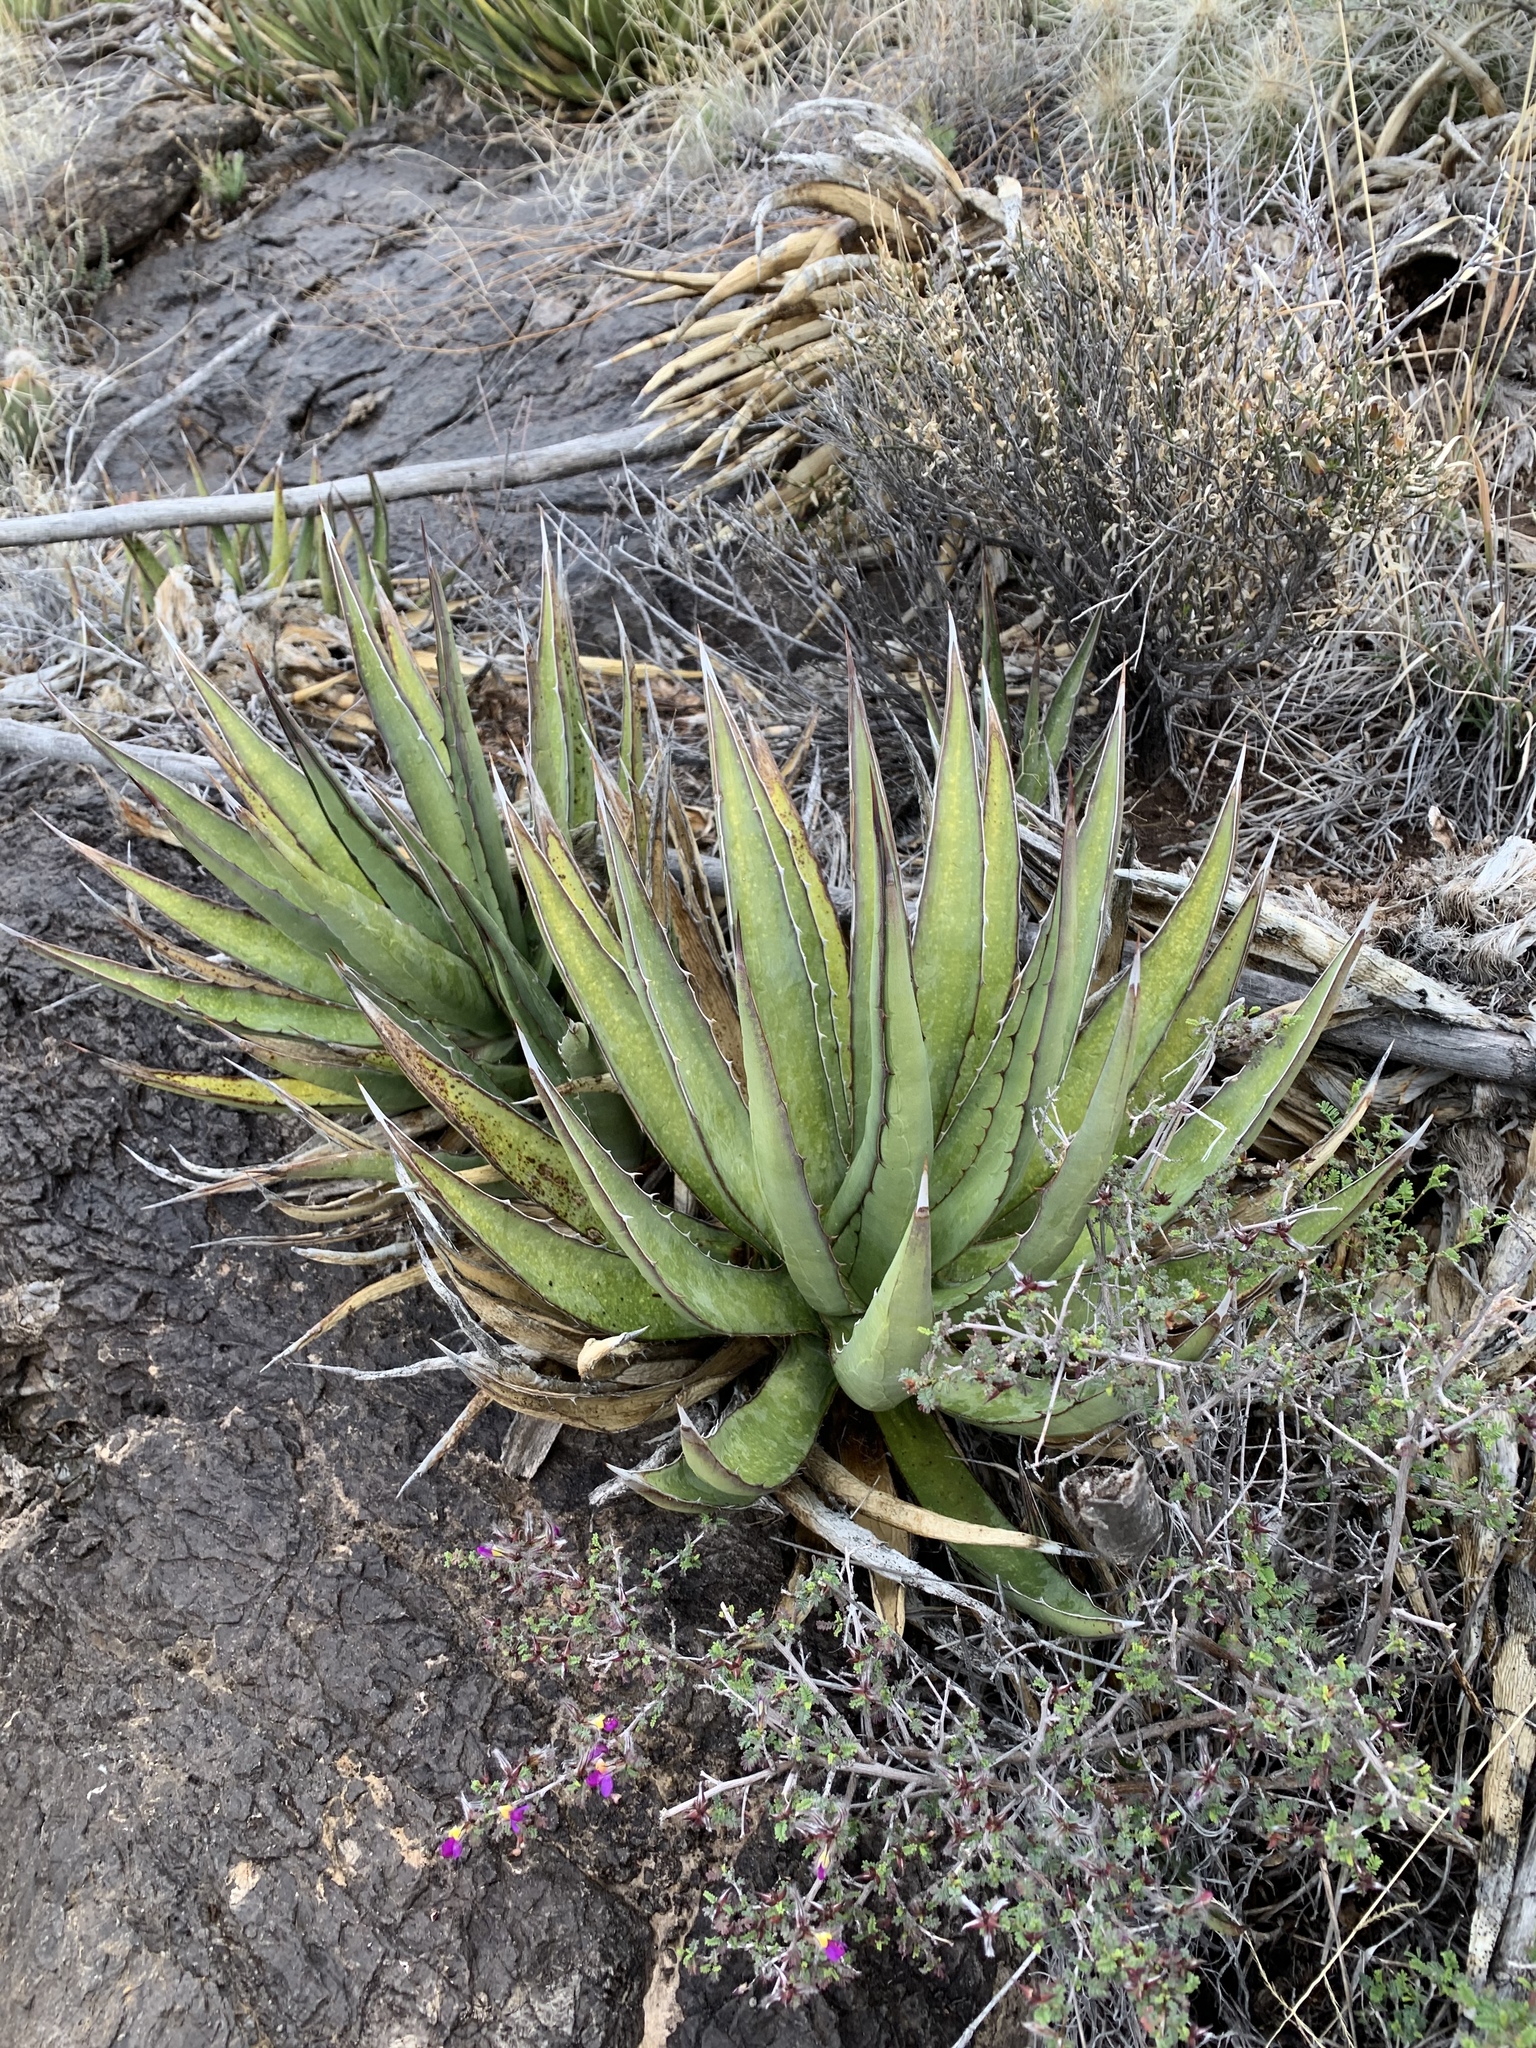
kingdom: Plantae
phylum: Tracheophyta
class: Liliopsida
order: Asparagales
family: Asparagaceae
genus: Agave
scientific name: Agave lechuguilla
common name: Lecheguilla agave
